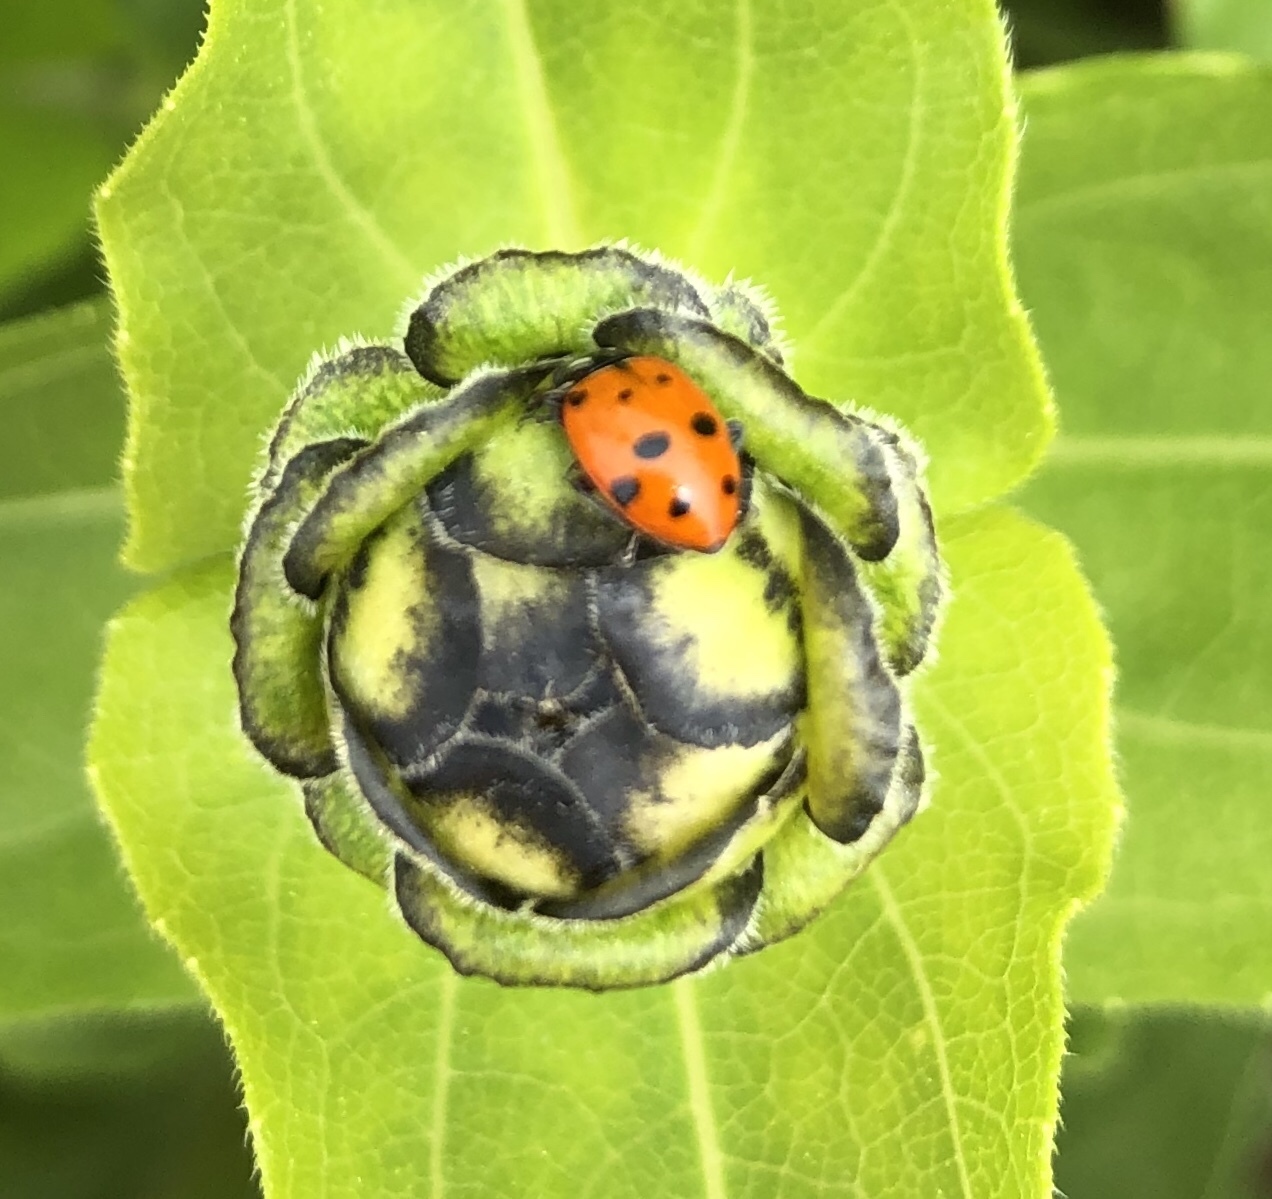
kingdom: Animalia
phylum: Arthropoda
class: Insecta
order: Coleoptera
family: Coccinellidae
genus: Hippodamia
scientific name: Hippodamia convergens
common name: Convergent lady beetle
